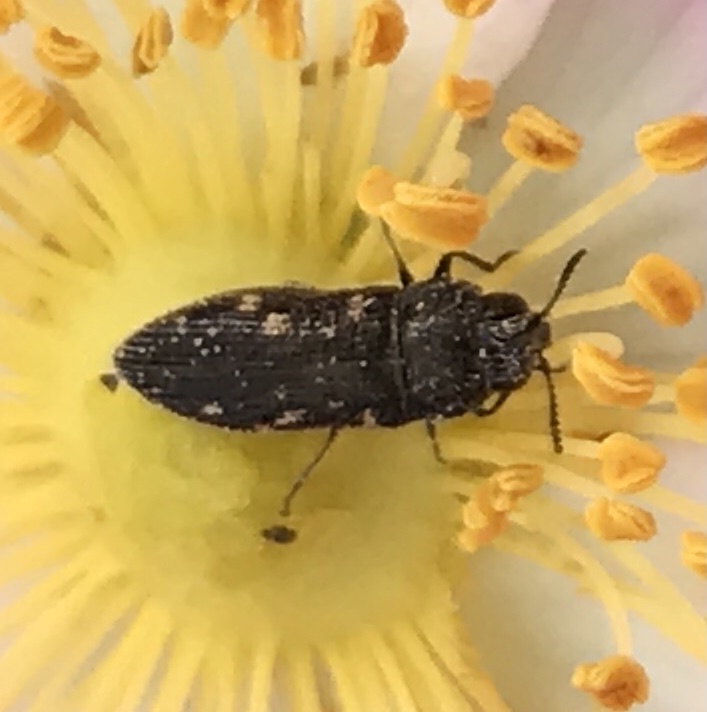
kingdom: Animalia
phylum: Arthropoda
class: Insecta
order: Coleoptera
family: Buprestidae
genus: Acmaeodera
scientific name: Acmaeodera tubulus
